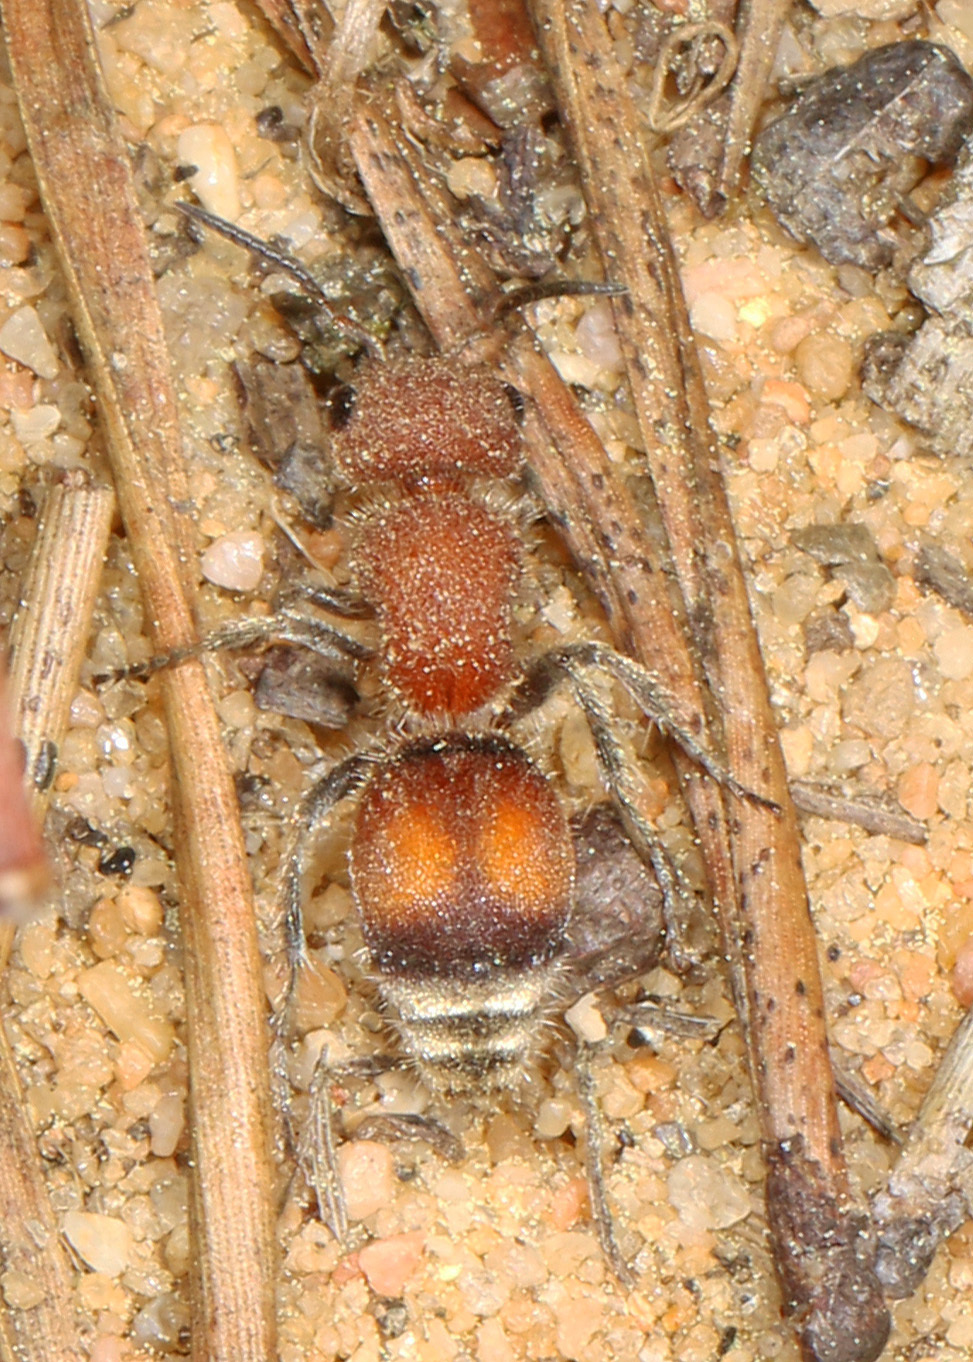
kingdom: Animalia
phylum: Arthropoda
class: Insecta
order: Hymenoptera
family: Mutillidae
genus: Pseudomethoca
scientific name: Pseudomethoca
